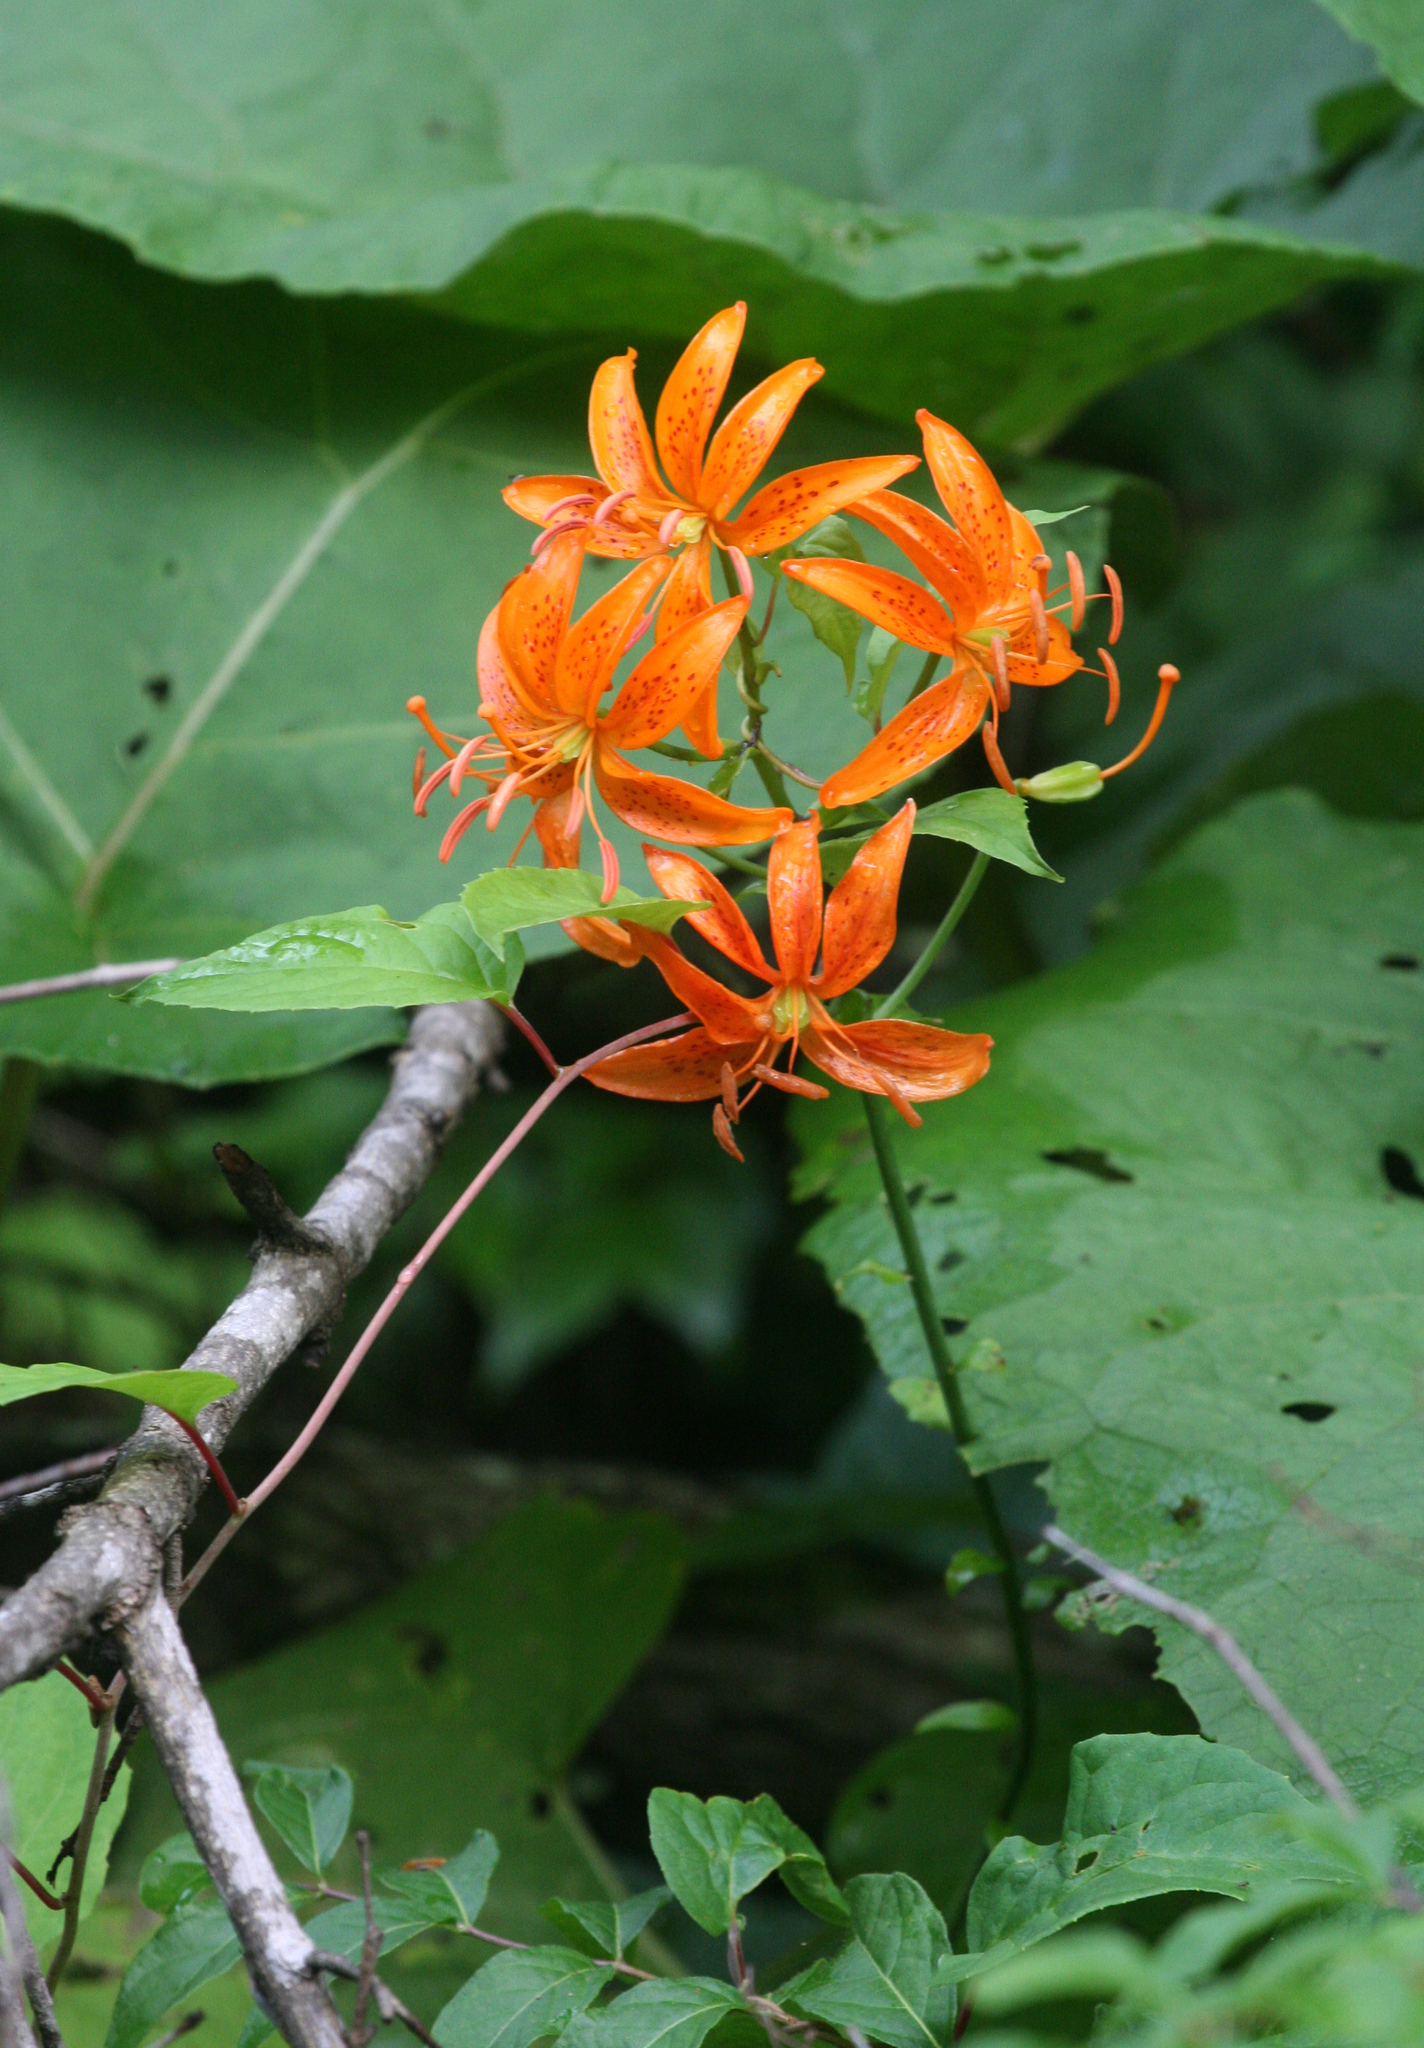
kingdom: Plantae
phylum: Tracheophyta
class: Liliopsida
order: Liliales
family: Liliaceae
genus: Lilium
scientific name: Lilium distichum
